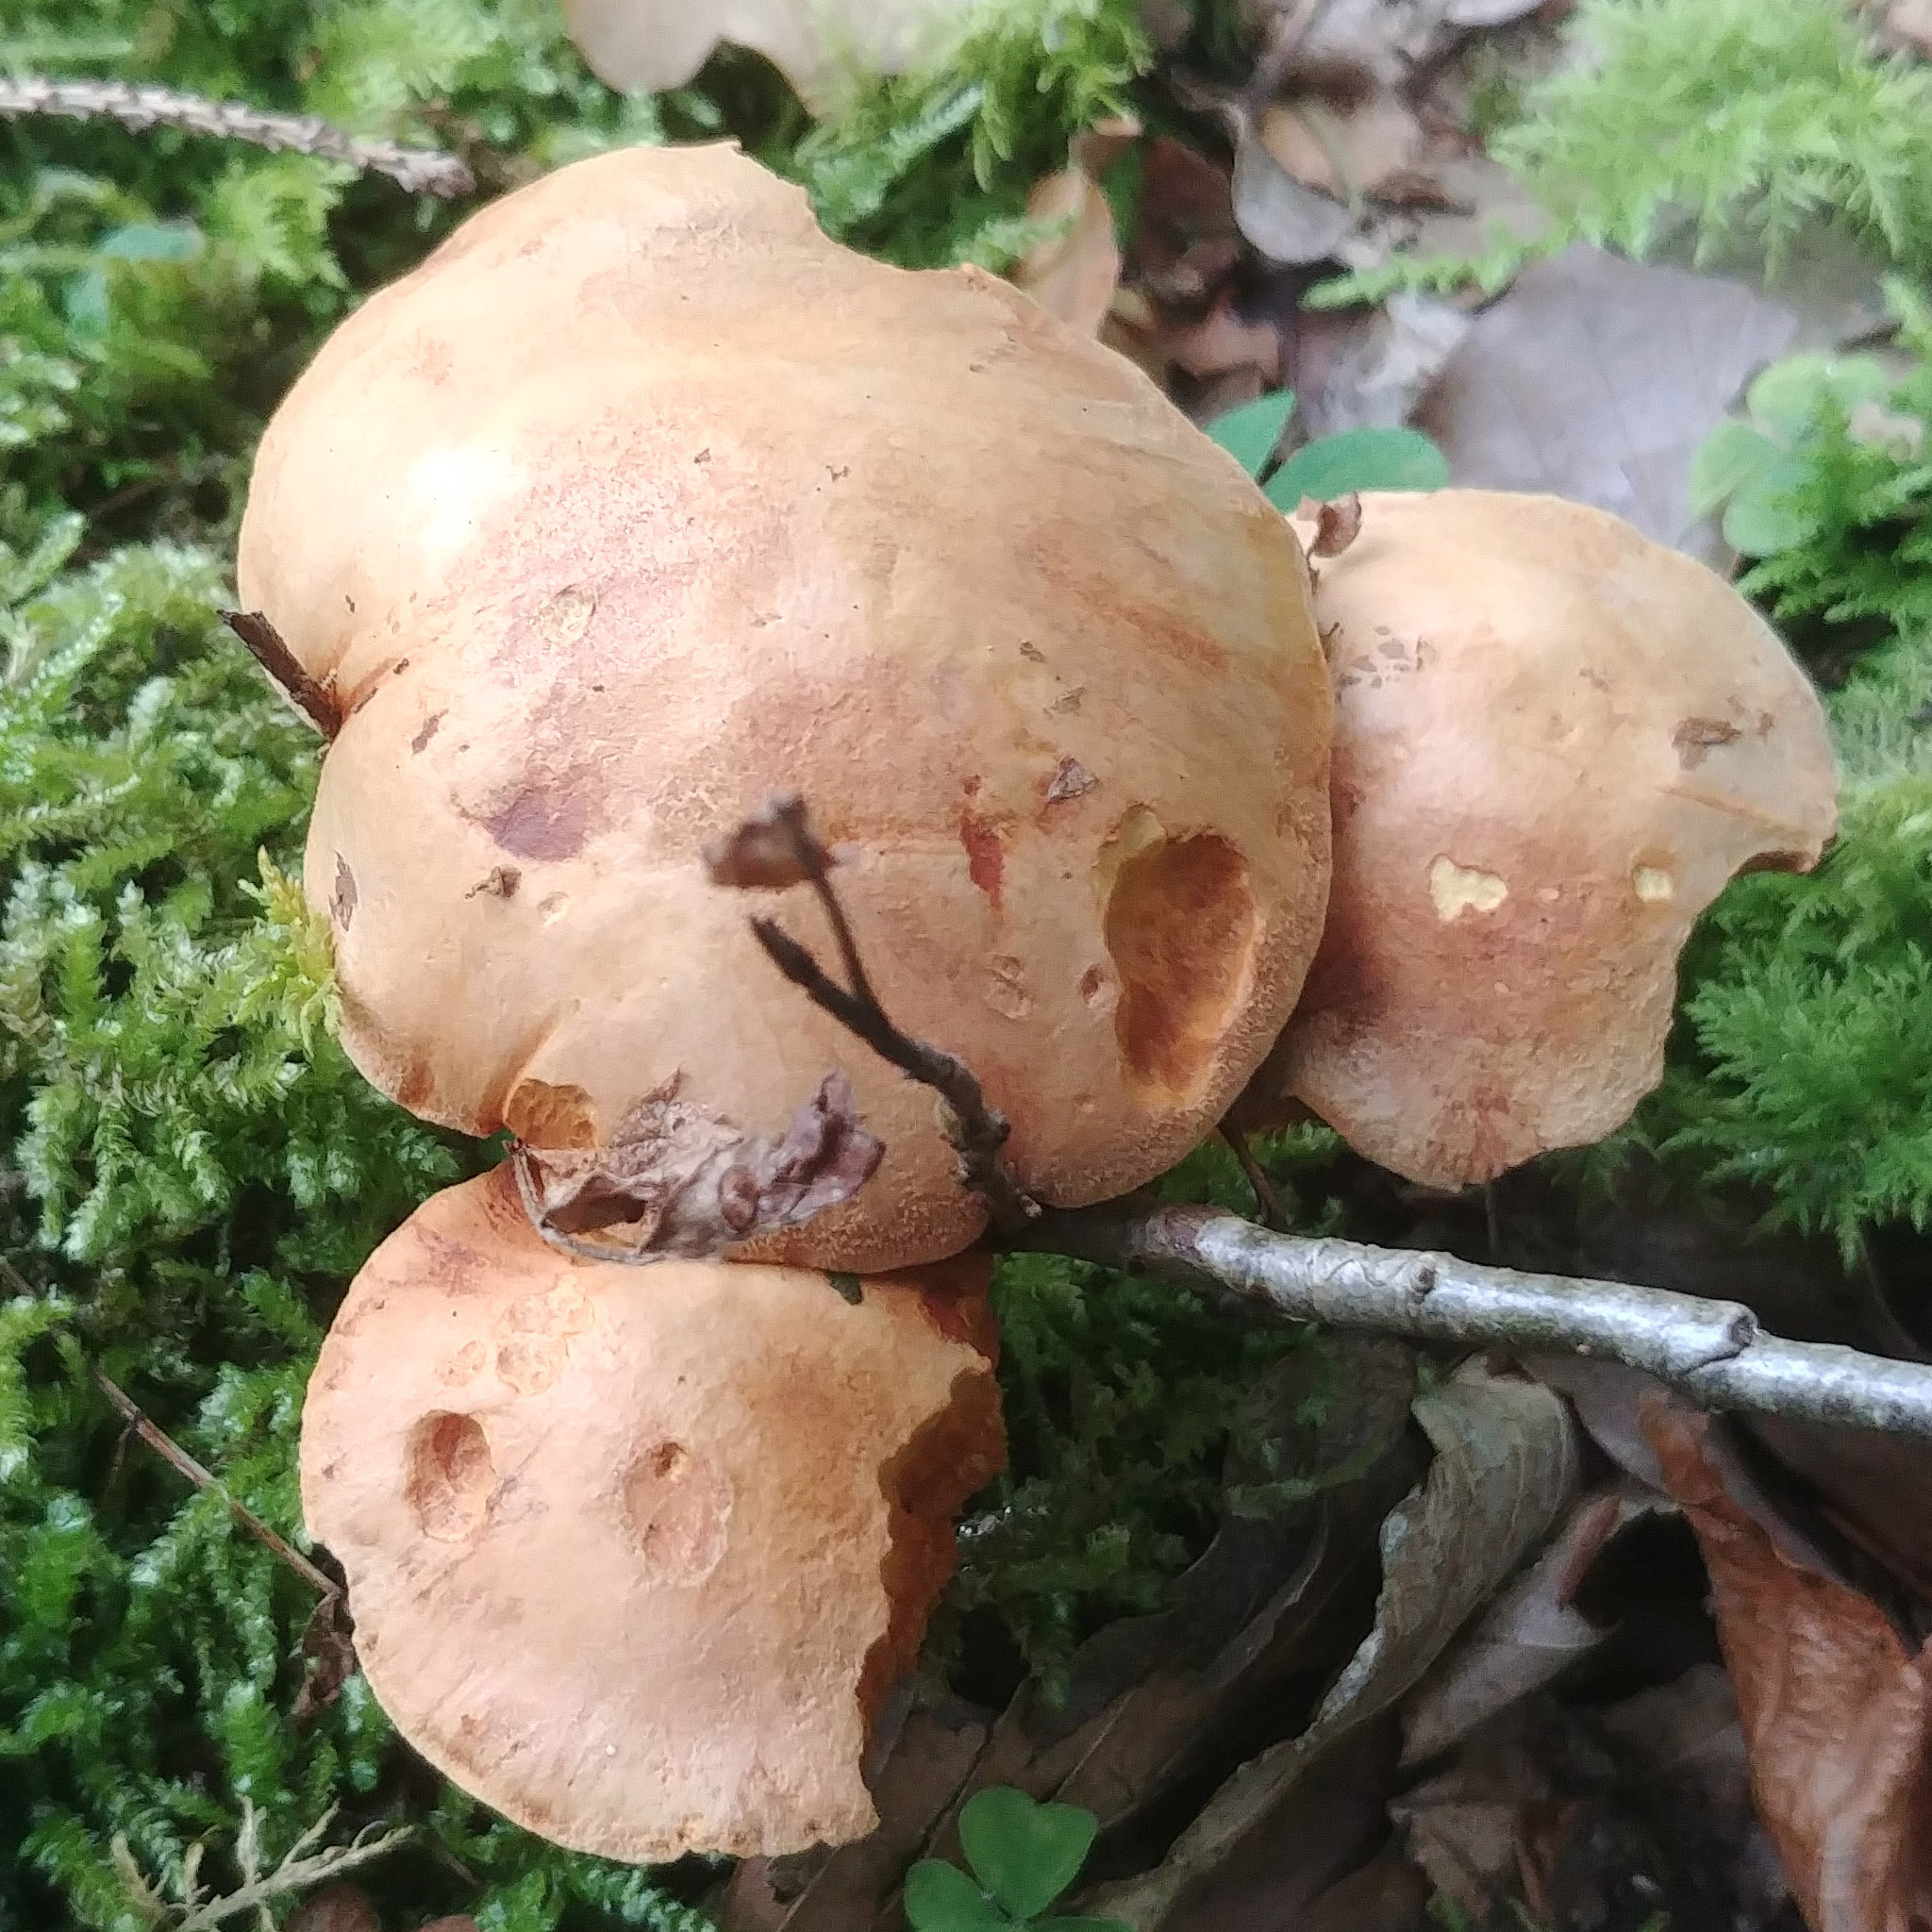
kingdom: Fungi
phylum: Basidiomycota
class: Agaricomycetes
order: Boletales
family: Suillaceae
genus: Suillus
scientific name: Suillus bovinus
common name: Bovine bolete
